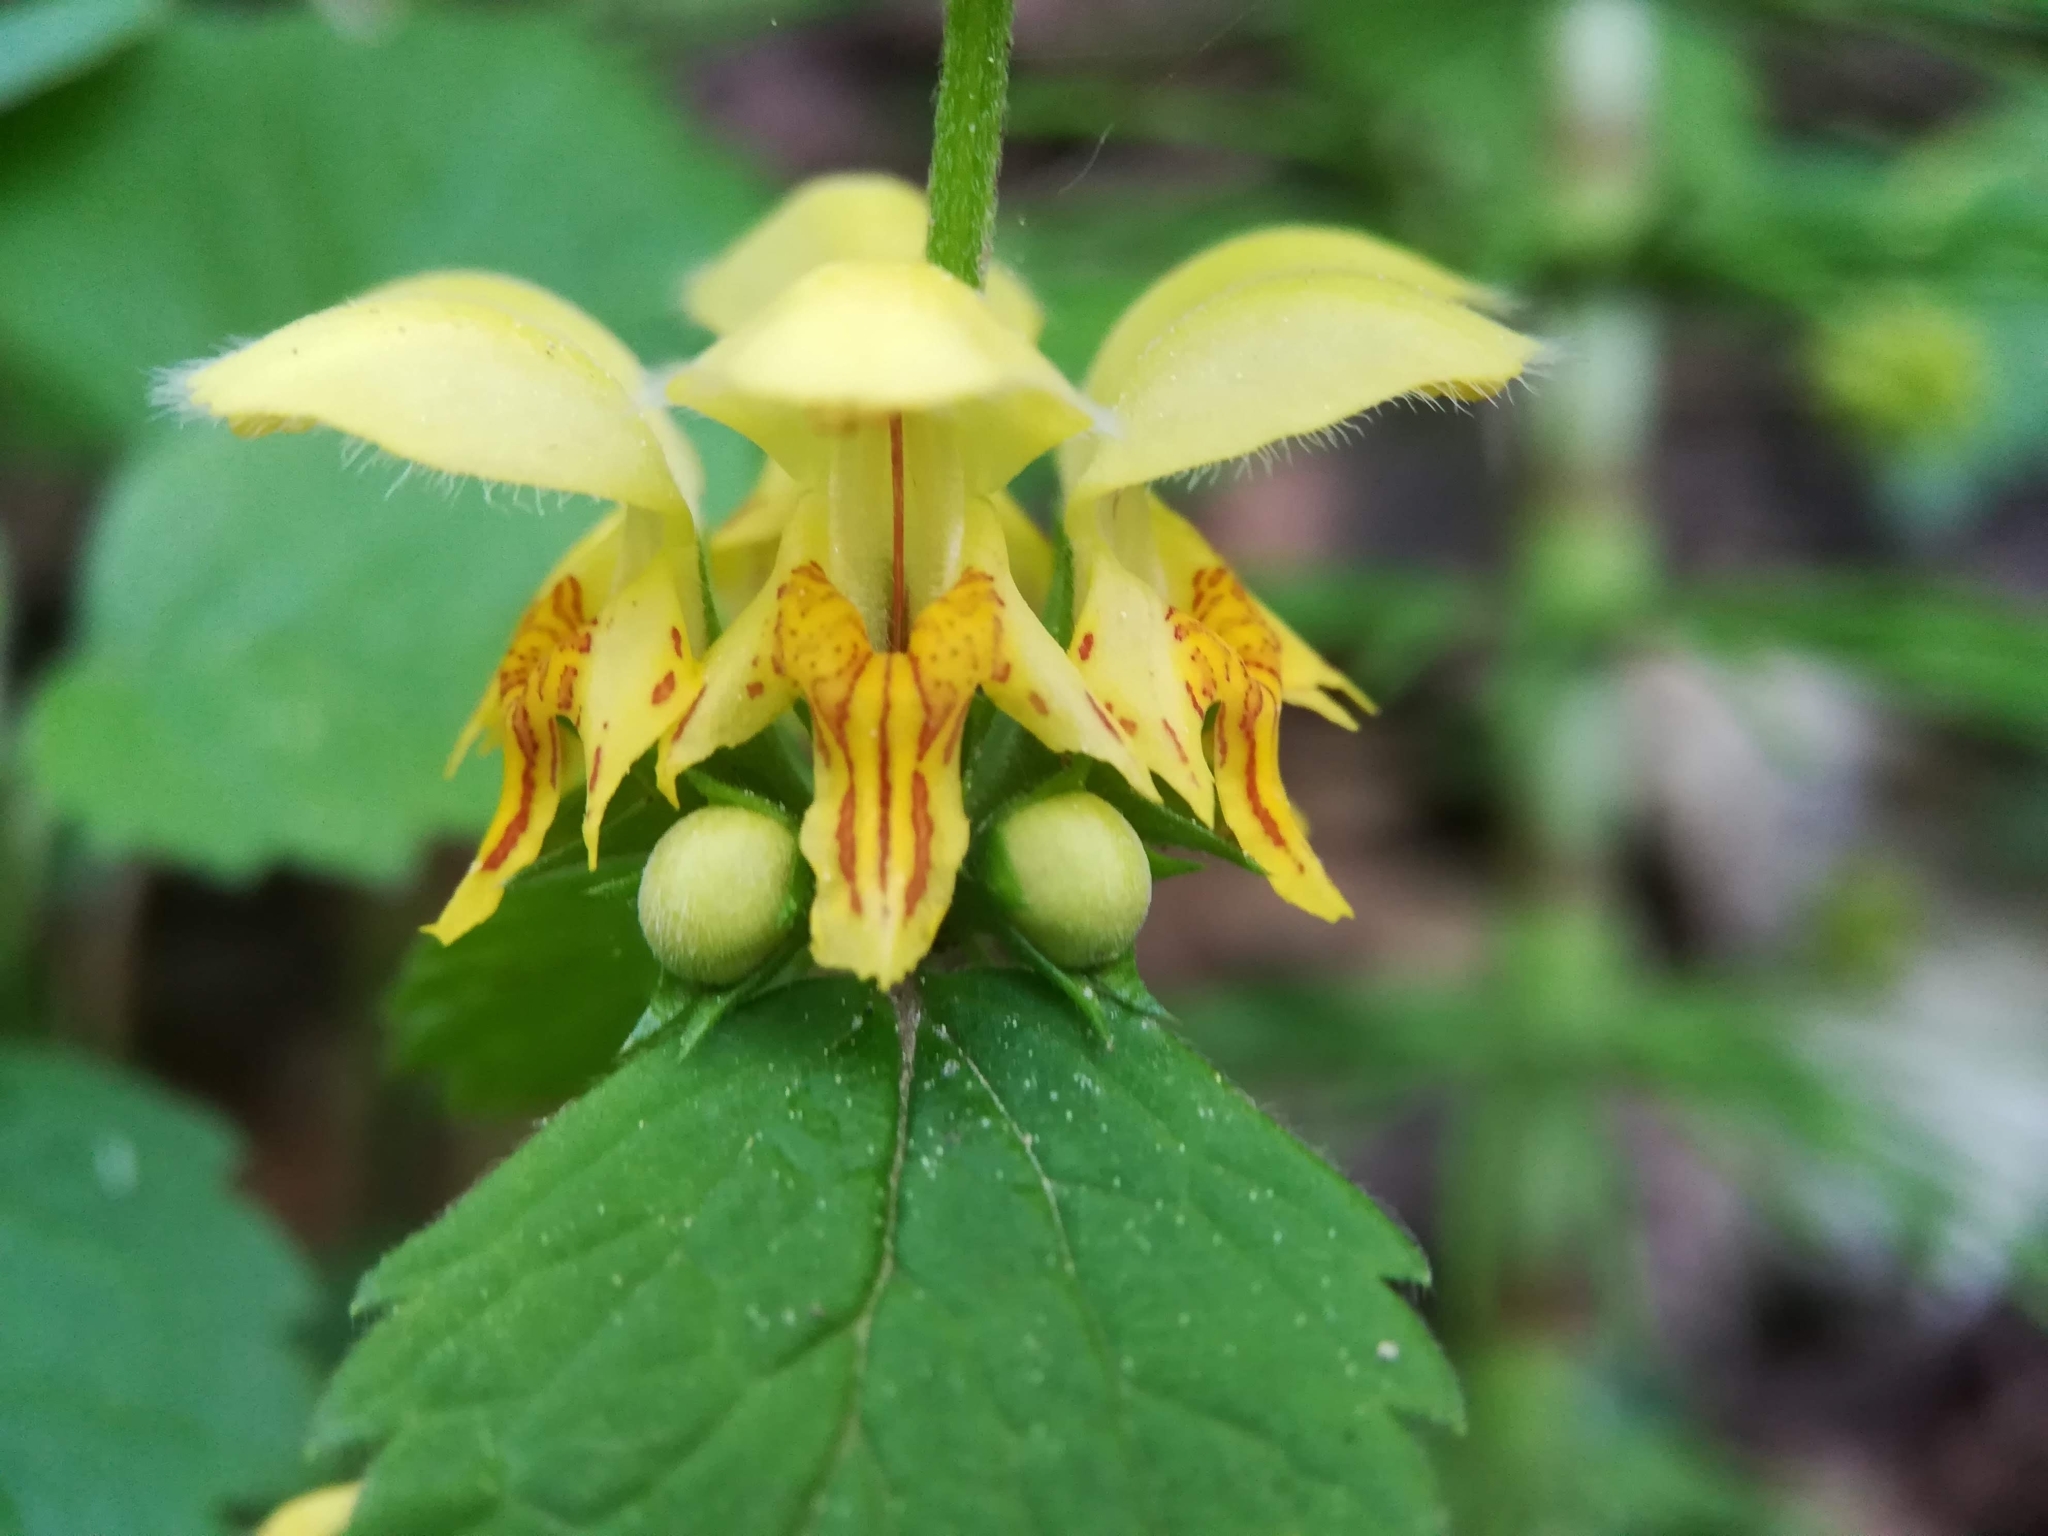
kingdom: Plantae
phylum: Tracheophyta
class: Magnoliopsida
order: Lamiales
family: Lamiaceae
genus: Lamium
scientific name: Lamium galeobdolon
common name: Yellow archangel
